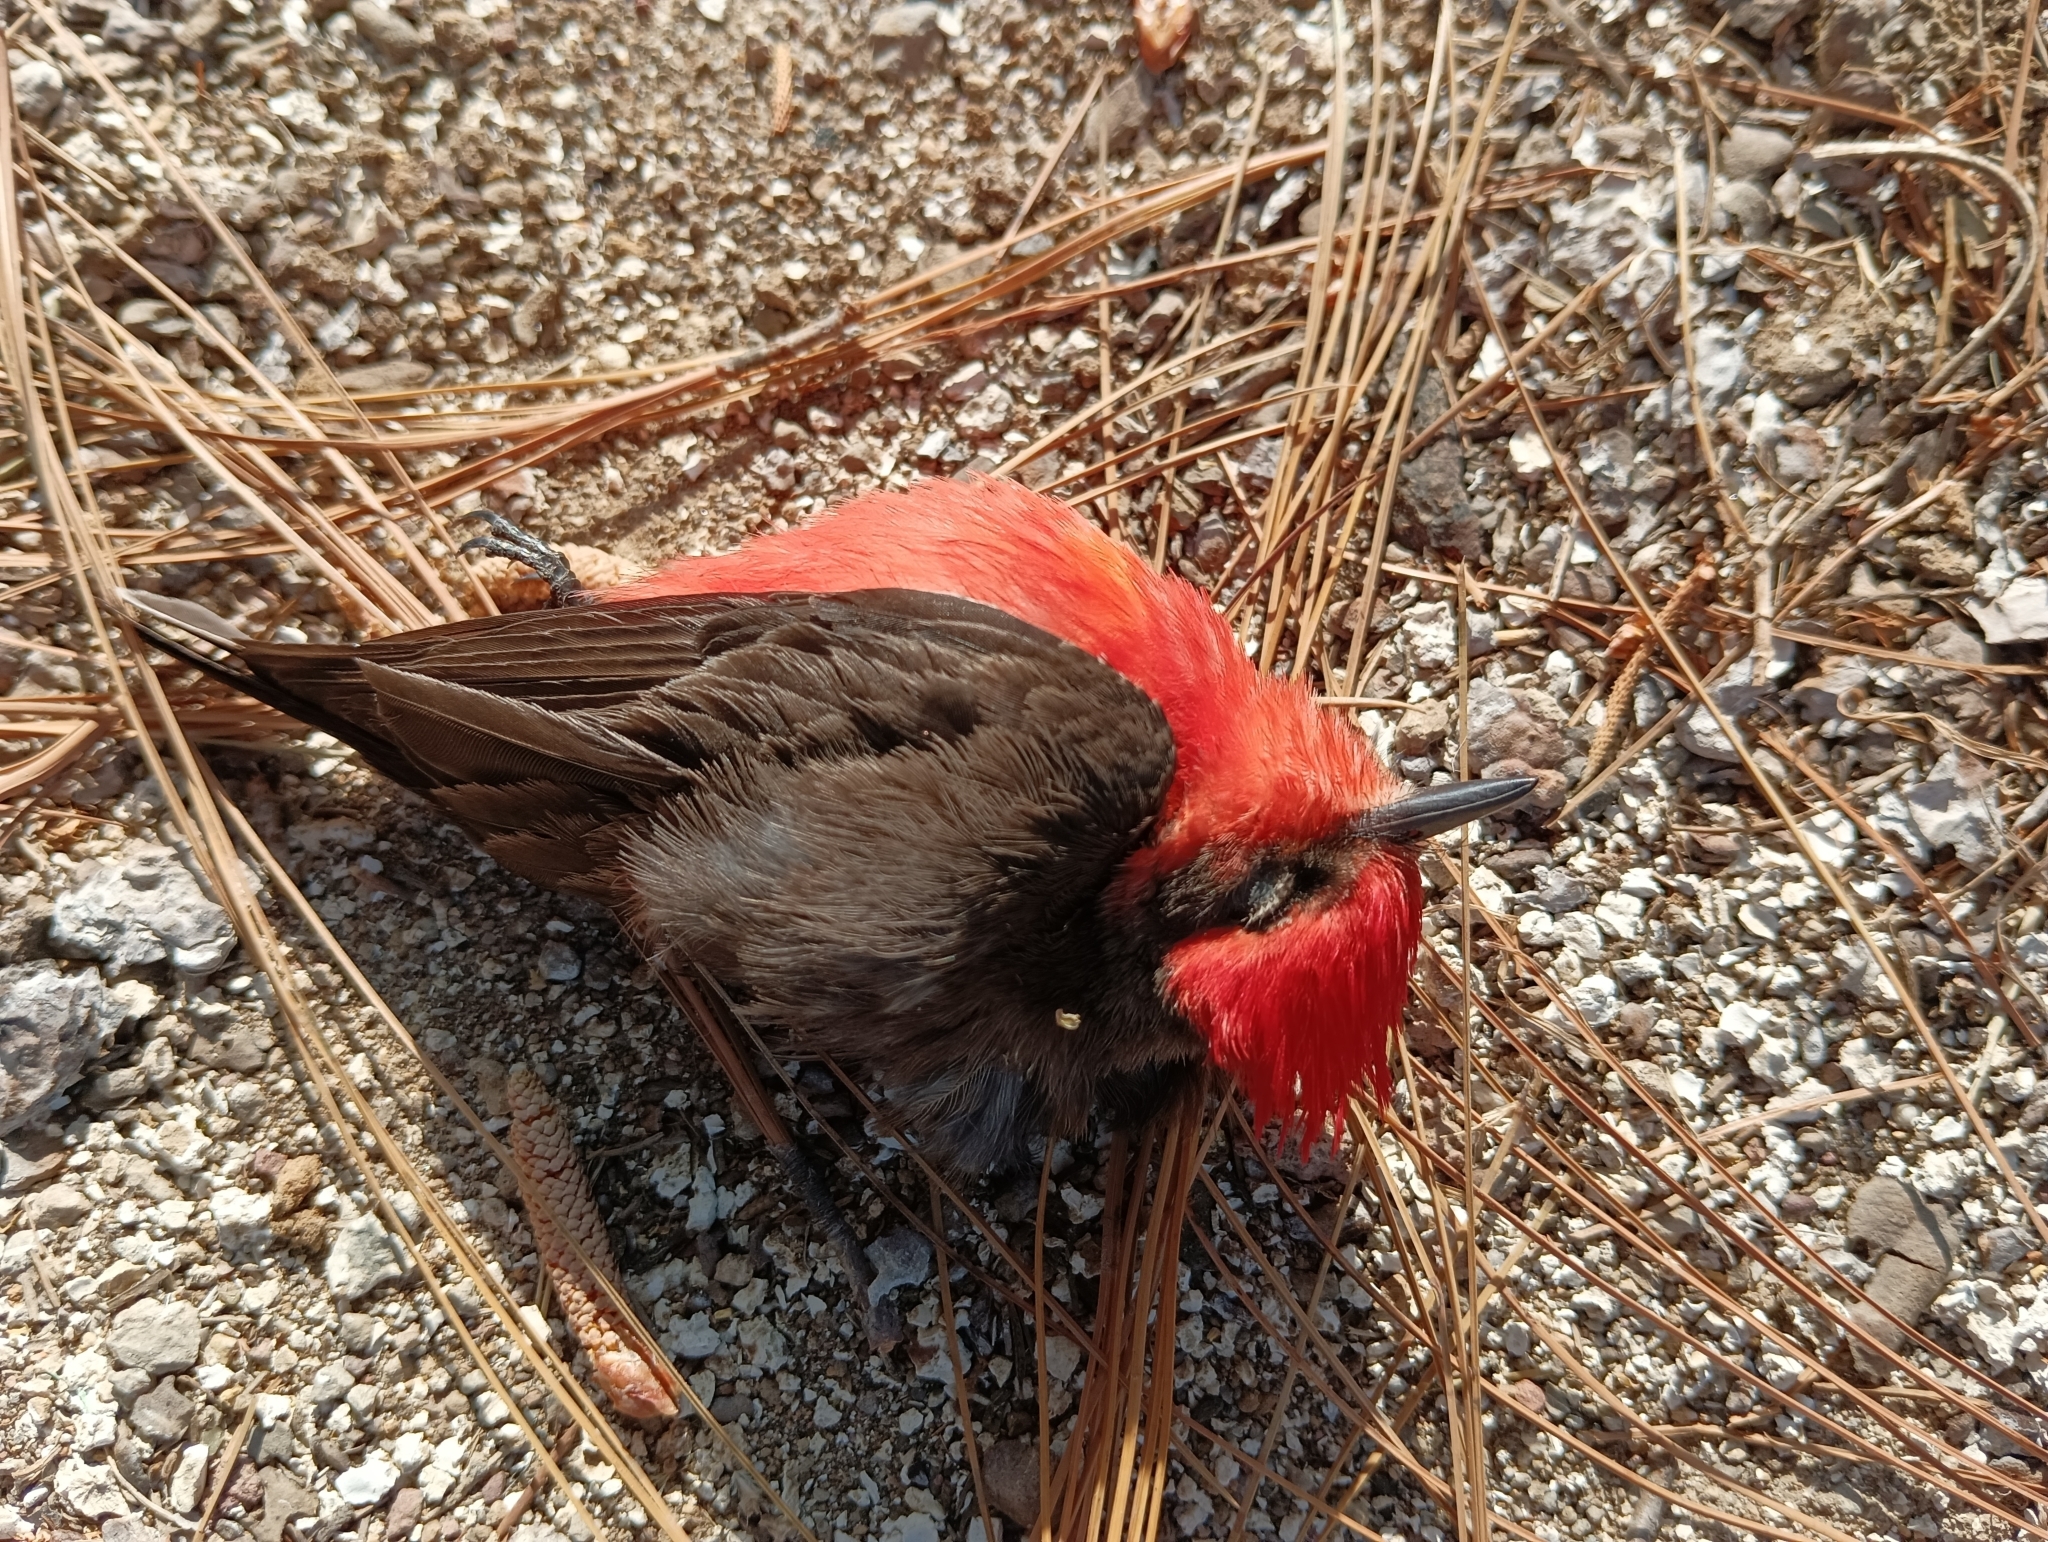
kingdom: Animalia
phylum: Chordata
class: Aves
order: Passeriformes
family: Tyrannidae
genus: Pyrocephalus
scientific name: Pyrocephalus rubinus
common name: Vermilion flycatcher
